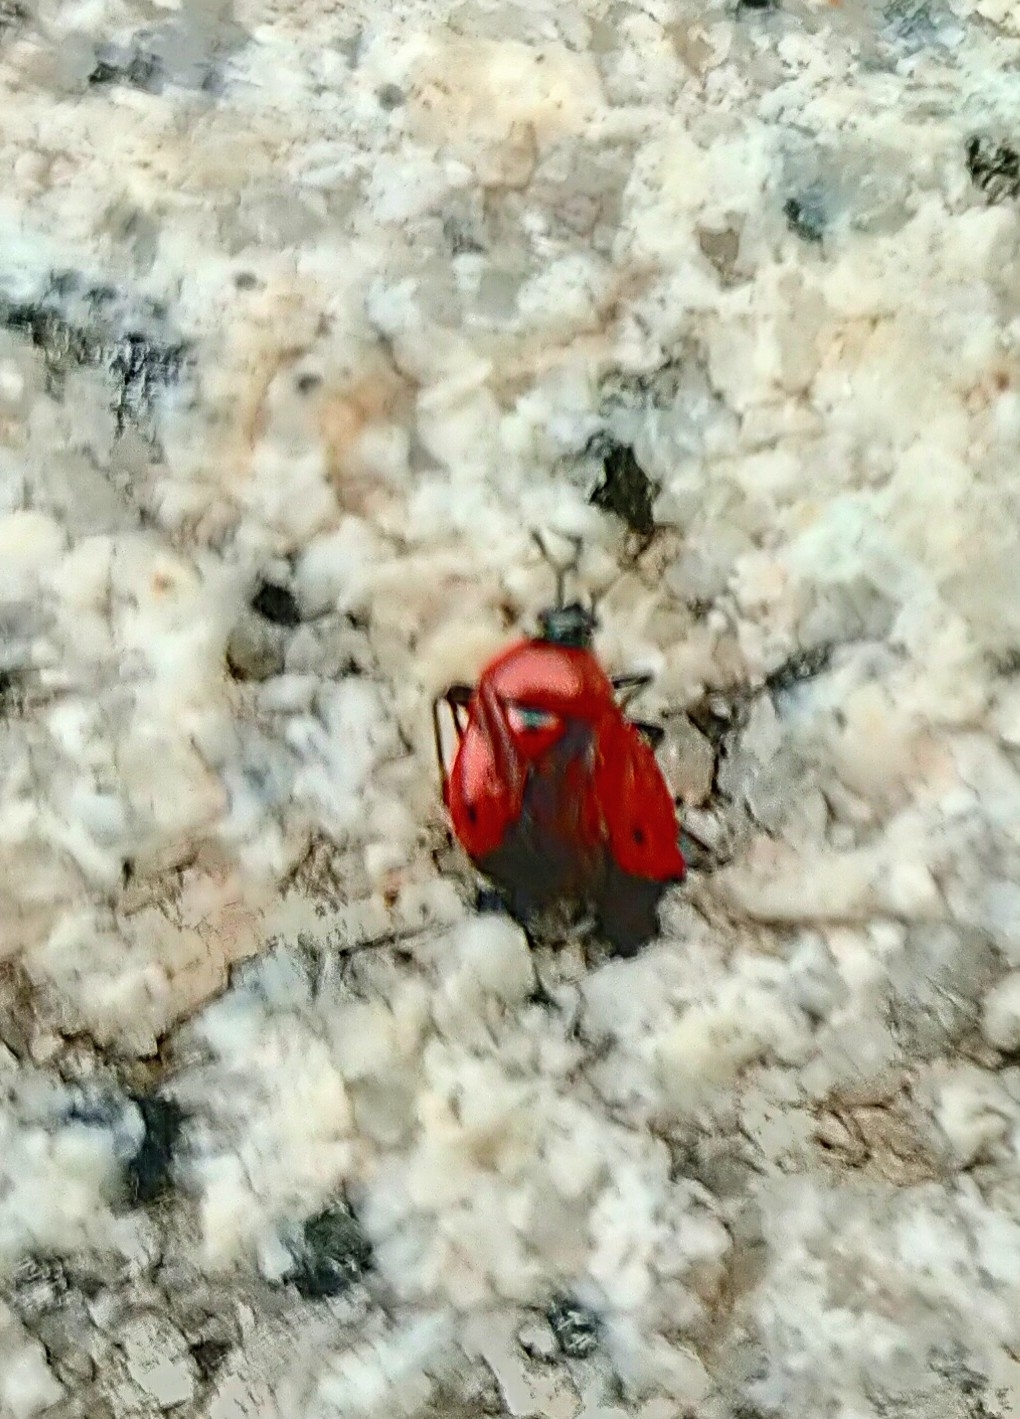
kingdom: Animalia
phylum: Arthropoda
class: Insecta
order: Hemiptera
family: Miridae
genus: Deraeocoris
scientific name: Deraeocoris punctum
